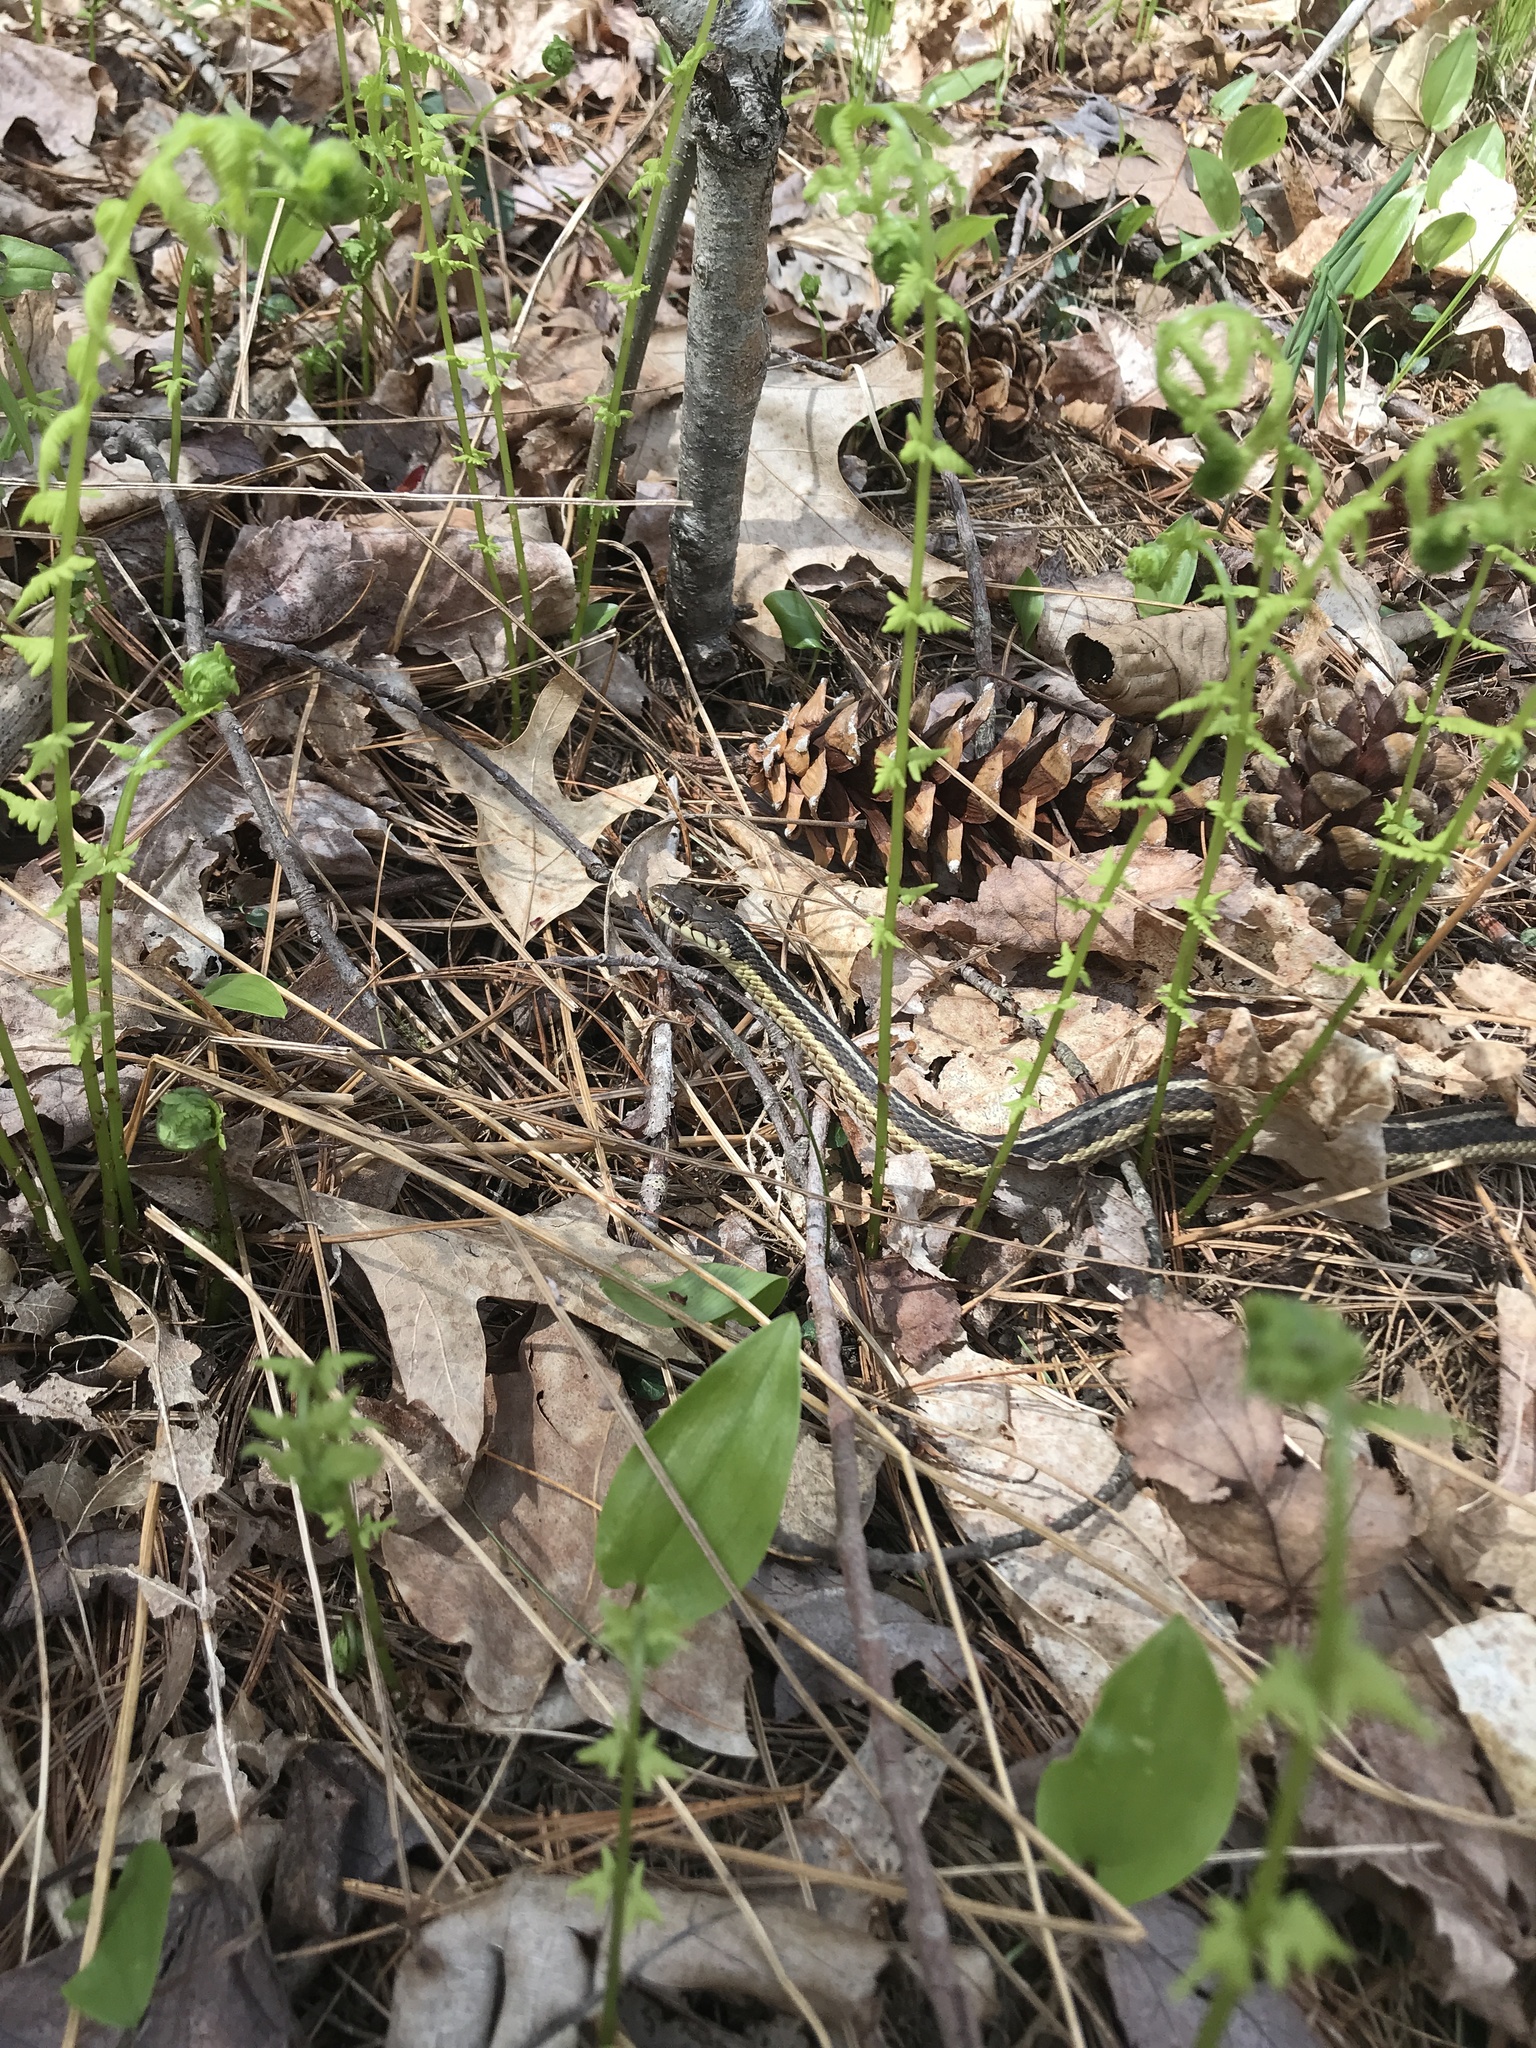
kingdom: Animalia
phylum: Chordata
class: Squamata
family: Colubridae
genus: Thamnophis
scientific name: Thamnophis sirtalis
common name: Common garter snake
